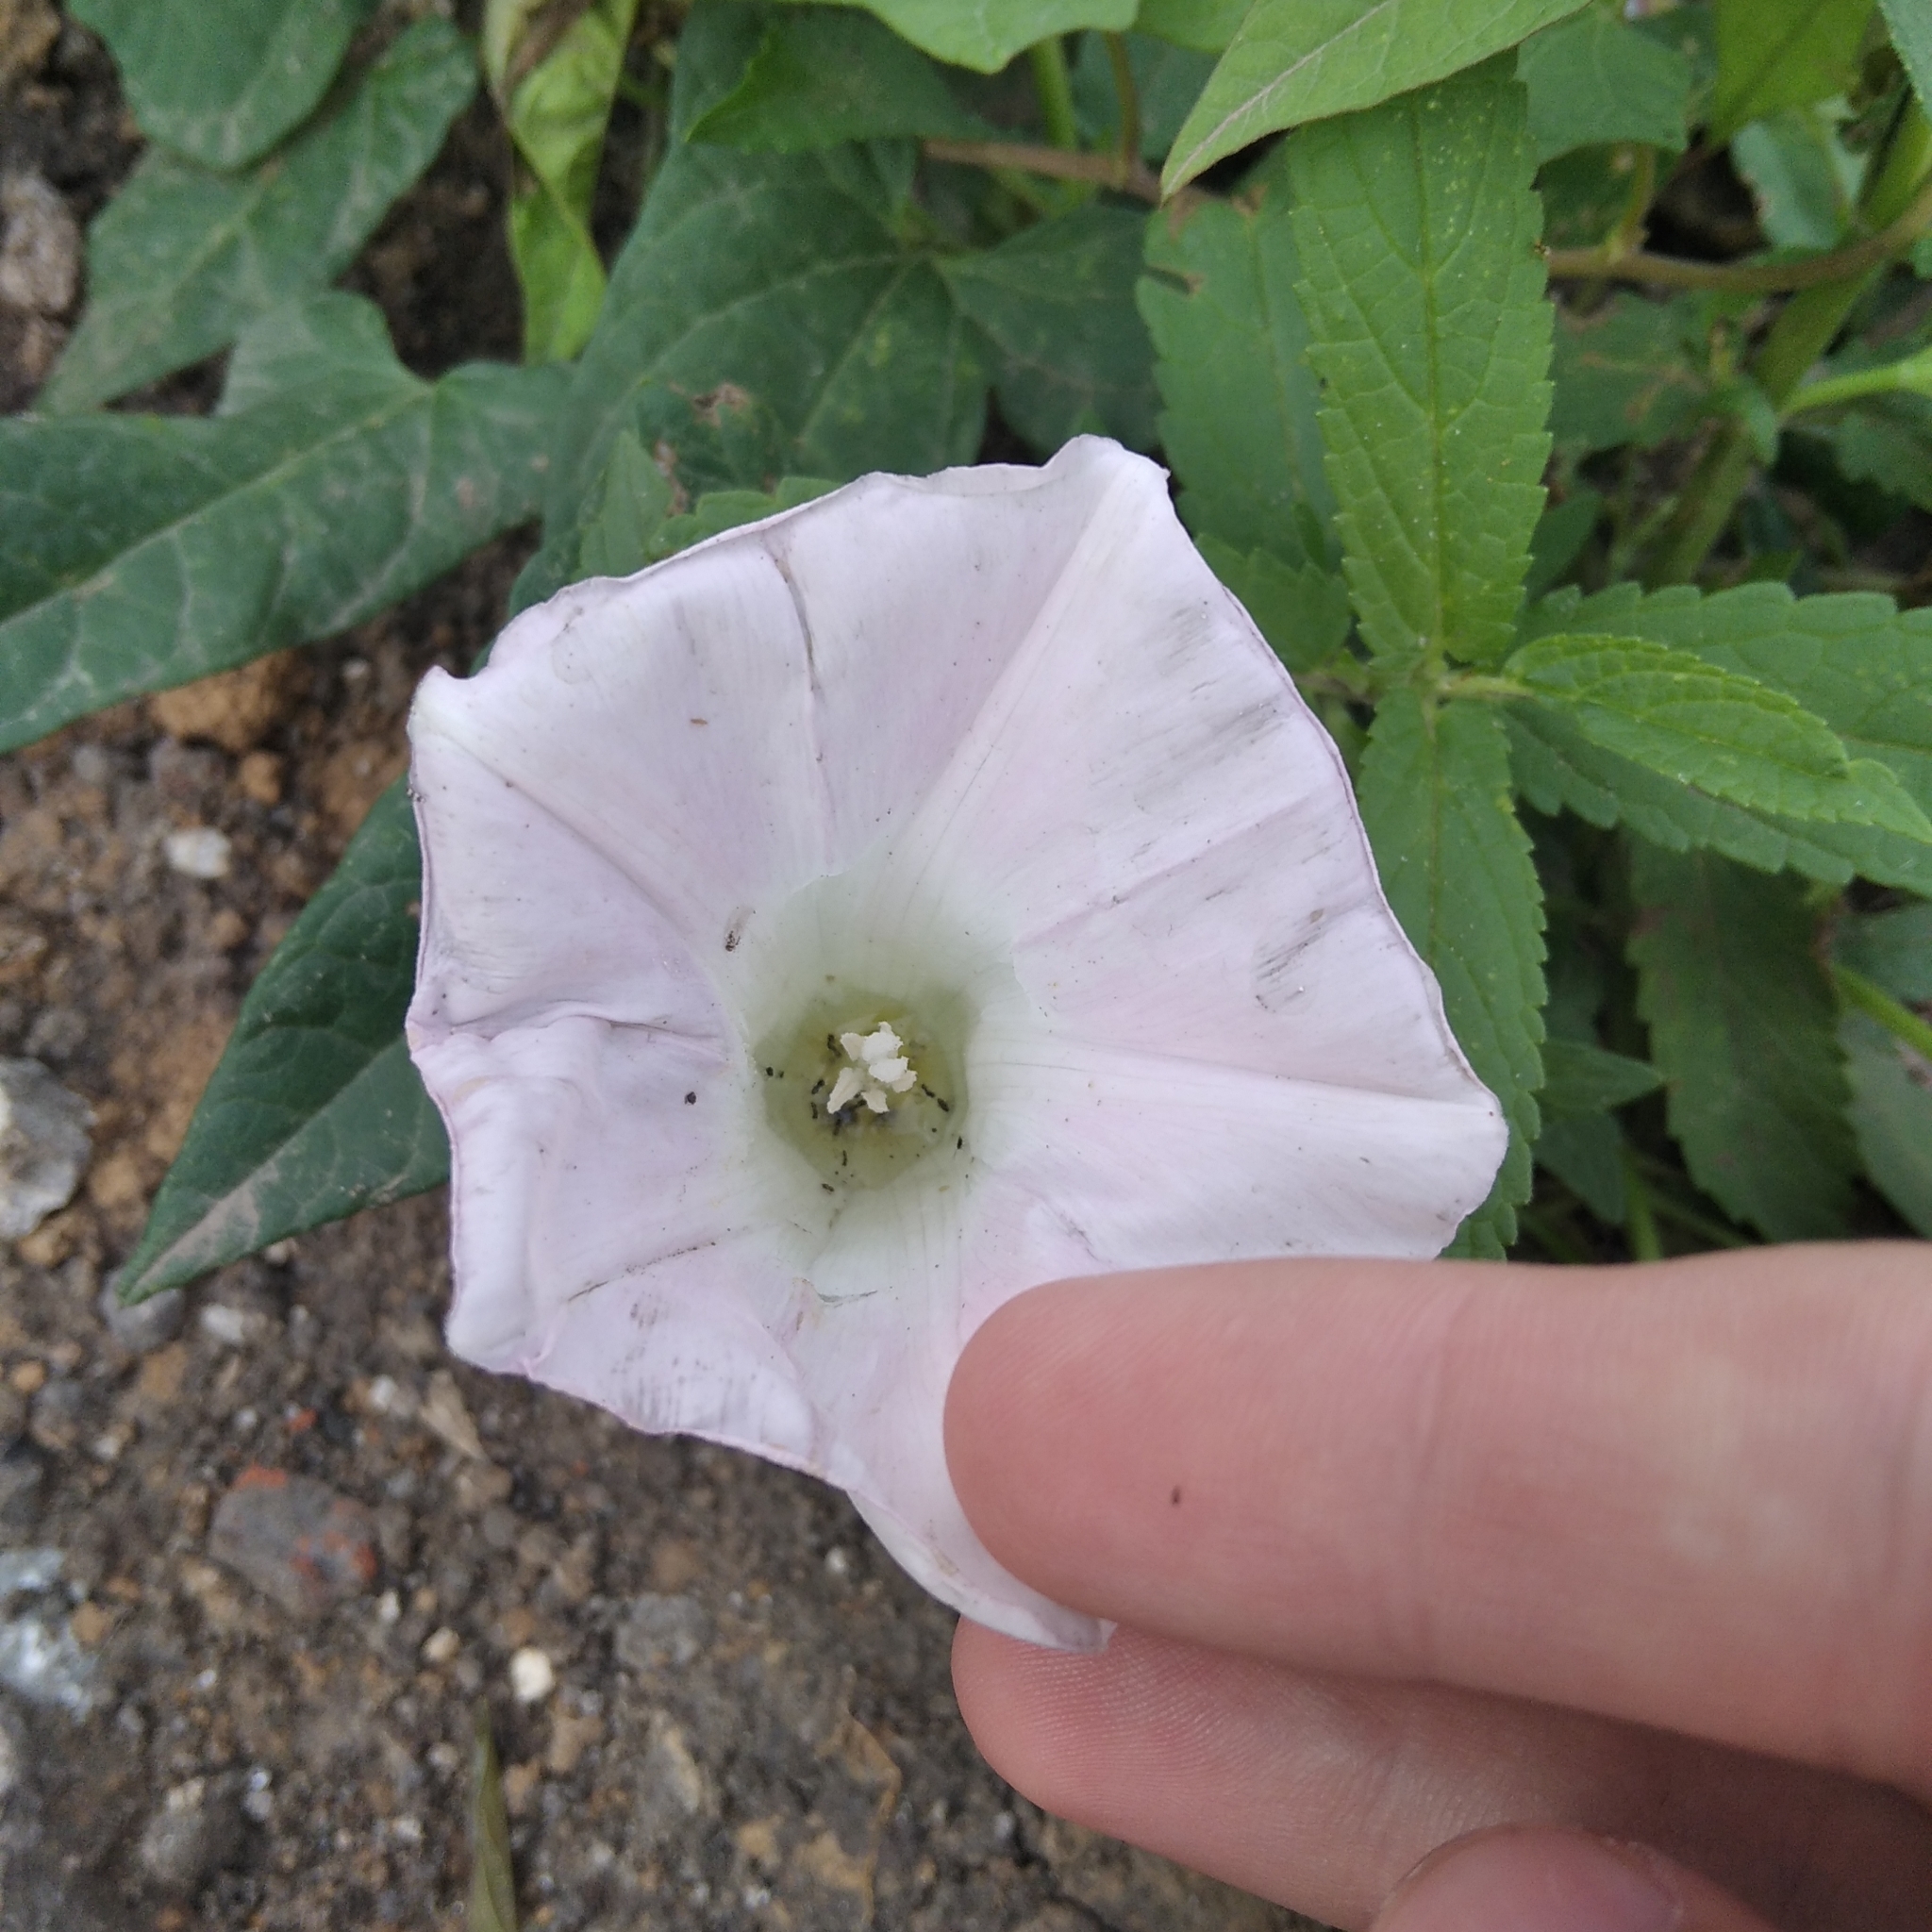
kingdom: Plantae
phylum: Tracheophyta
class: Magnoliopsida
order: Solanales
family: Convolvulaceae
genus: Calystegia
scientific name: Calystegia sepium
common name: Hedge bindweed
